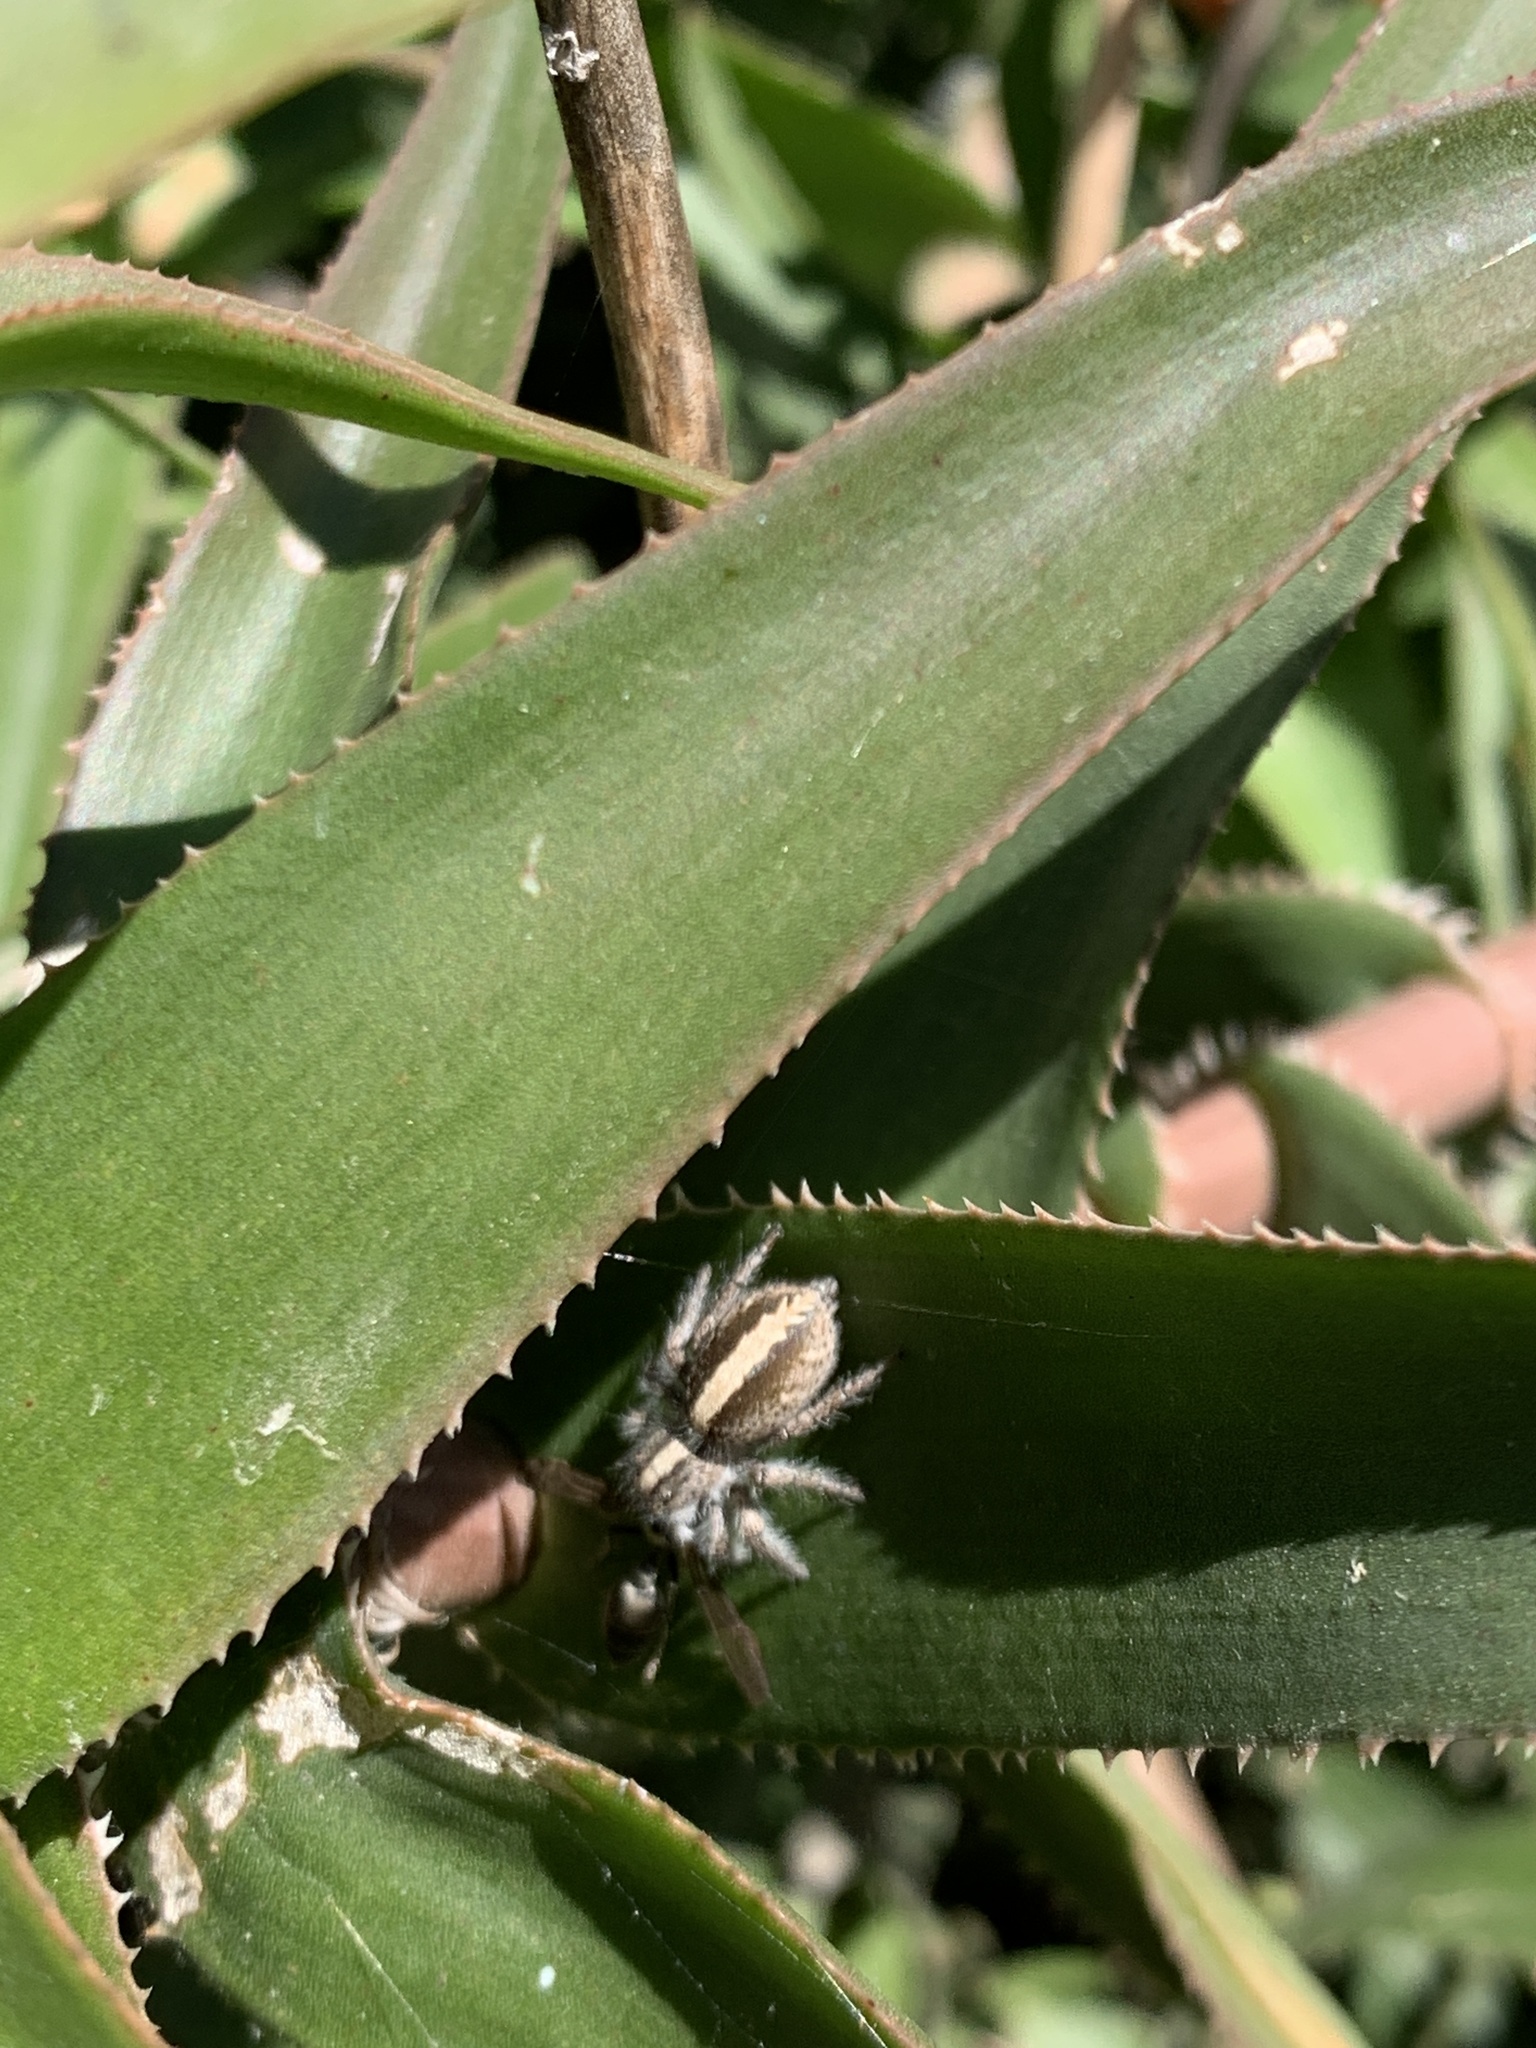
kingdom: Animalia
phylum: Arthropoda
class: Arachnida
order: Araneae
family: Salticidae
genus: Megafreya
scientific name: Megafreya sutrix
